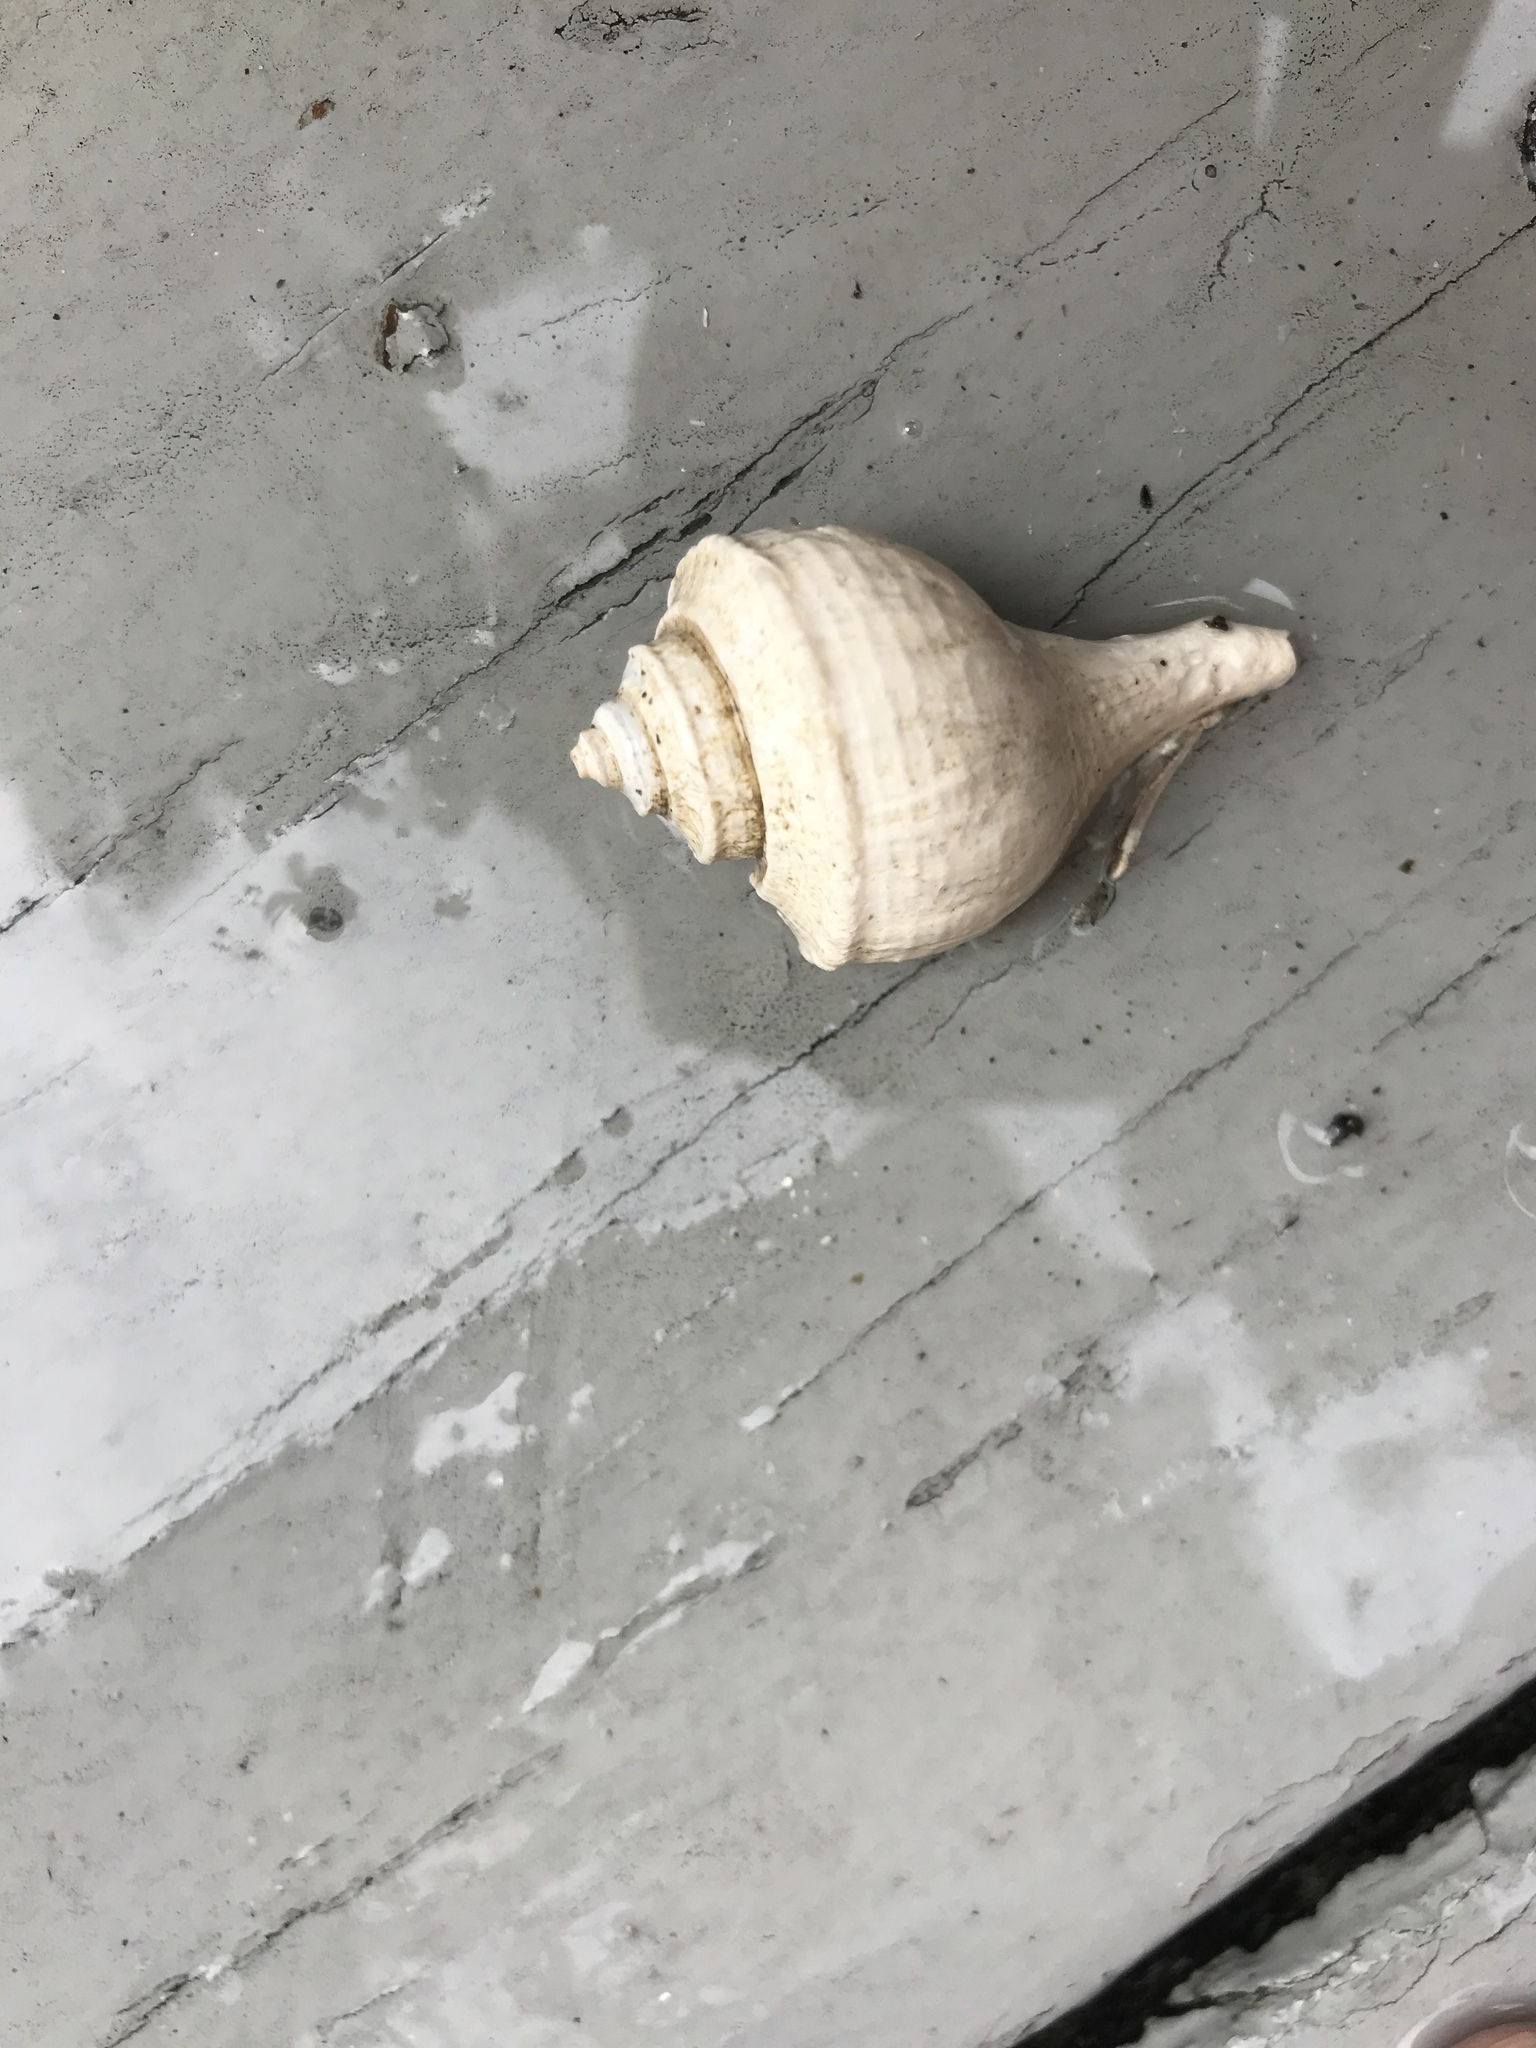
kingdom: Animalia
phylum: Mollusca
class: Gastropoda
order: Neogastropoda
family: Busyconidae
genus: Busycotypus
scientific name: Busycotypus canaliculatus
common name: Channeled whelk
